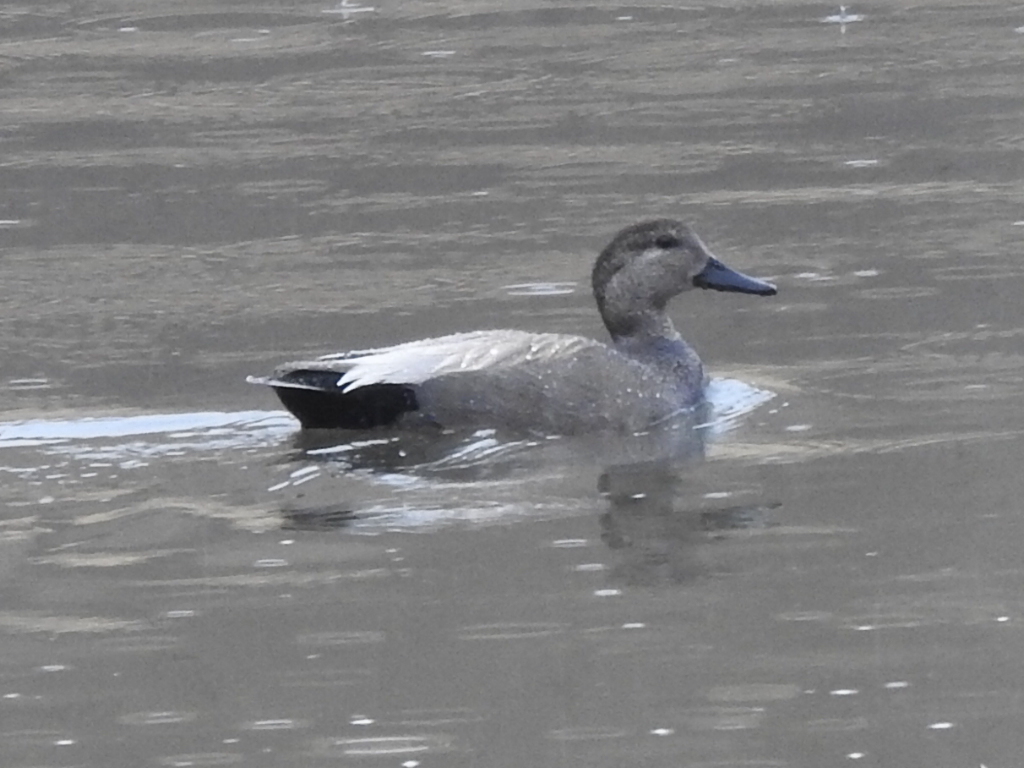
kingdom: Animalia
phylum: Chordata
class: Aves
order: Anseriformes
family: Anatidae
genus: Mareca
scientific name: Mareca strepera
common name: Gadwall
